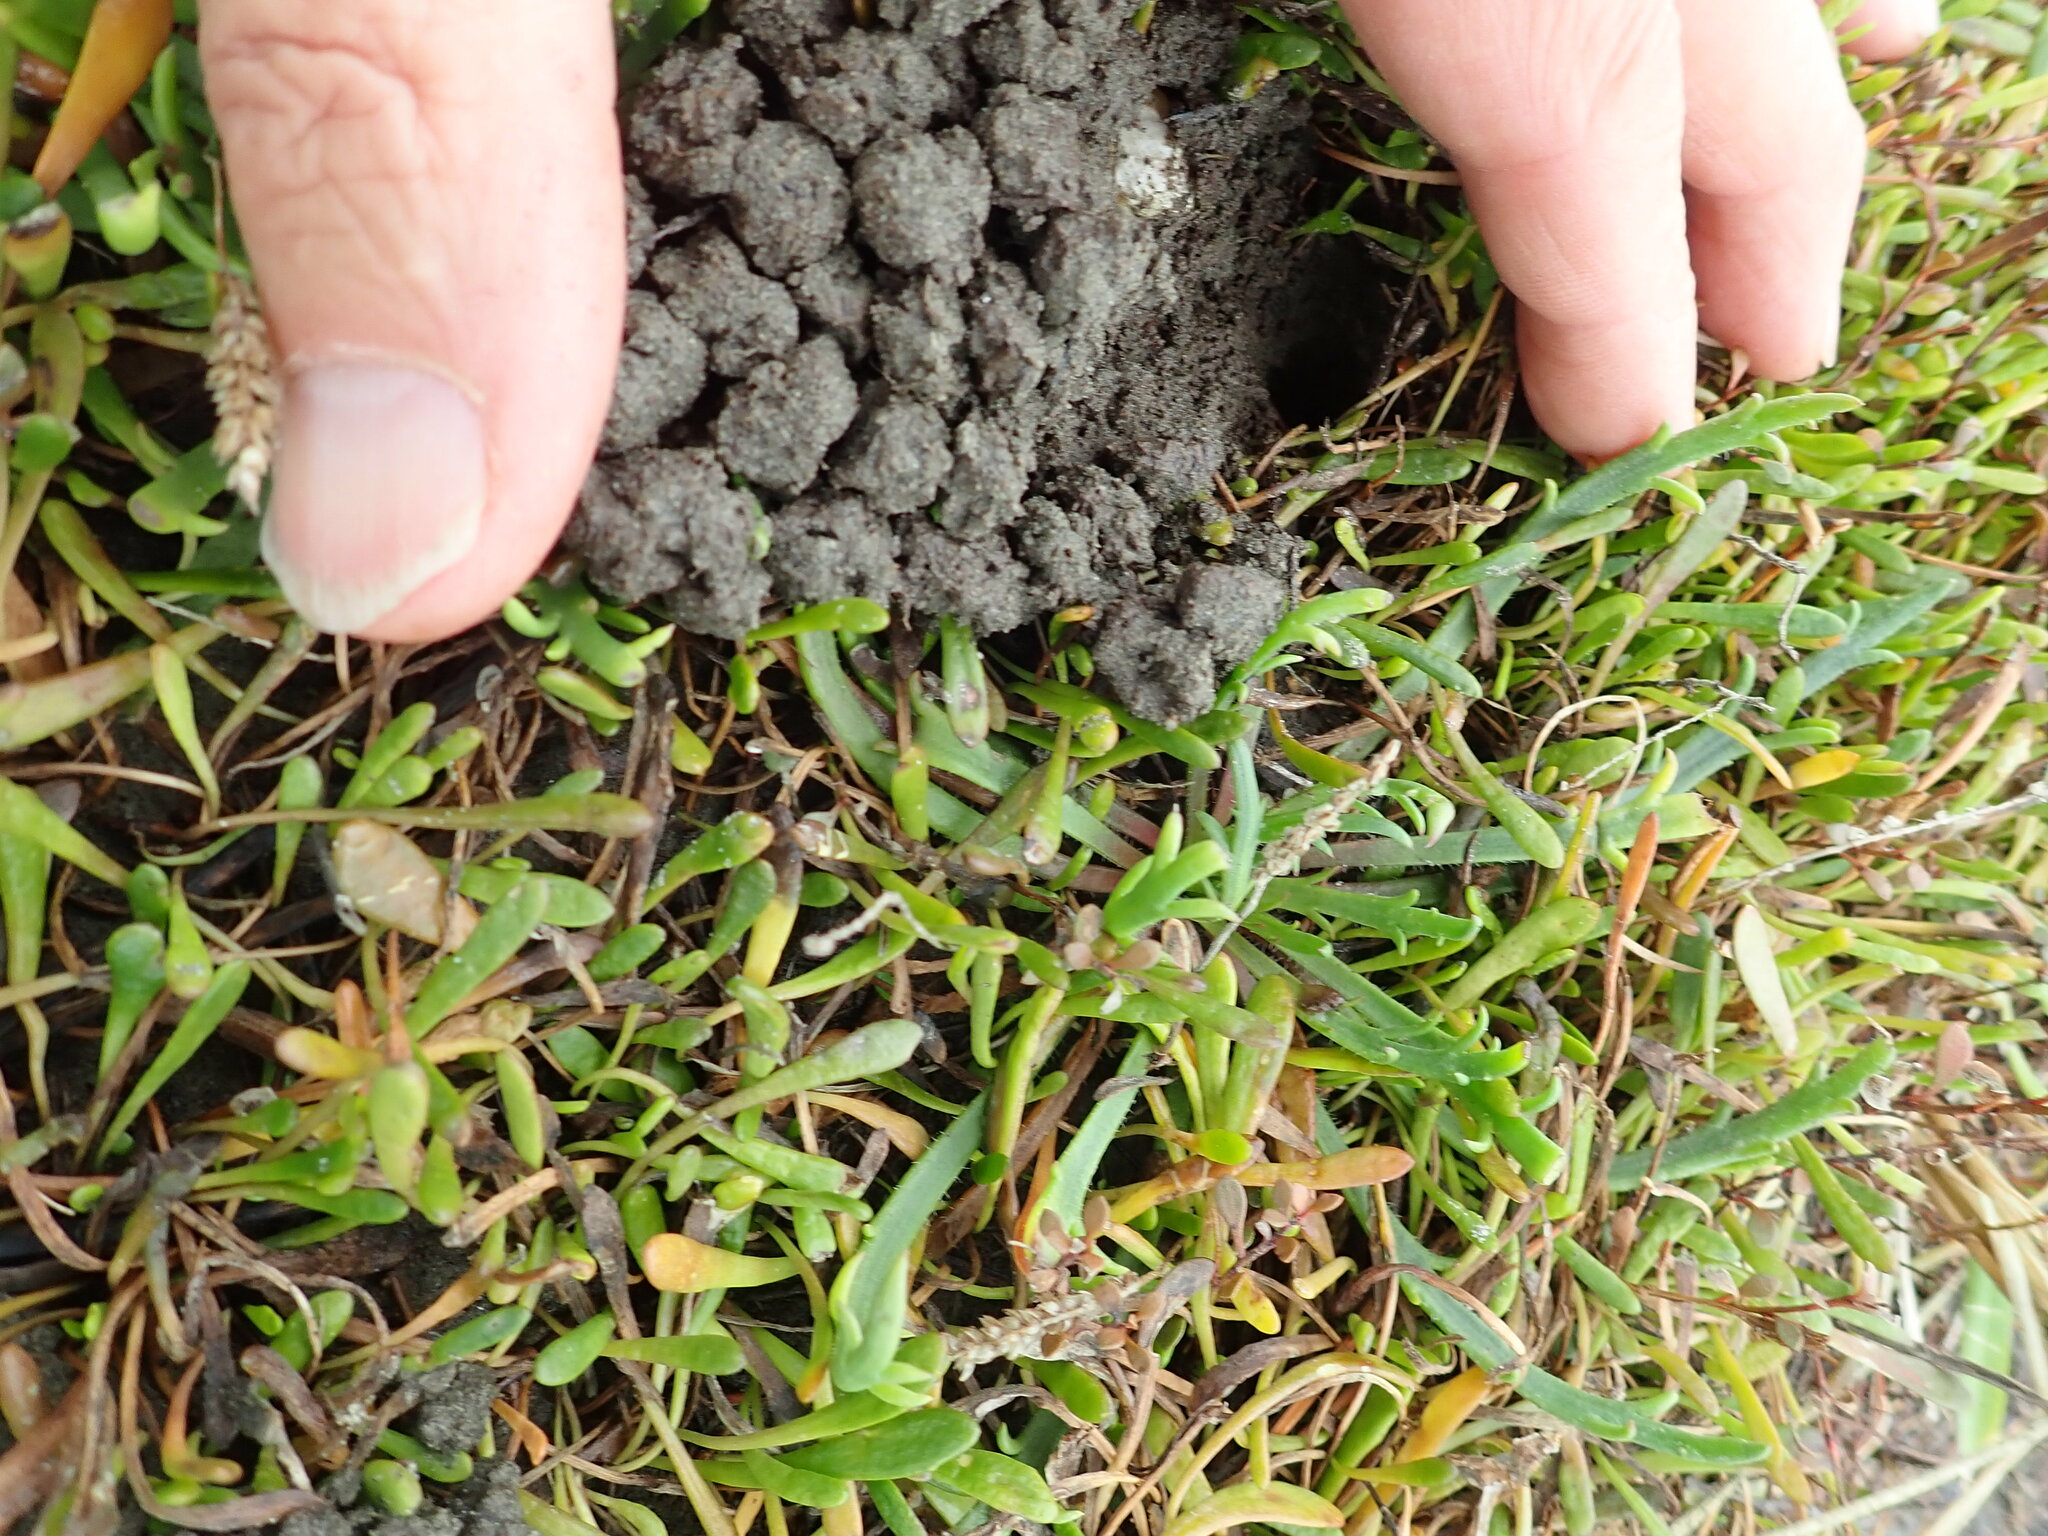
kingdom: Plantae
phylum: Tracheophyta
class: Magnoliopsida
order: Lamiales
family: Plantaginaceae
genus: Plantago
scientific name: Plantago coronopus
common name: Buck's-horn plantain
